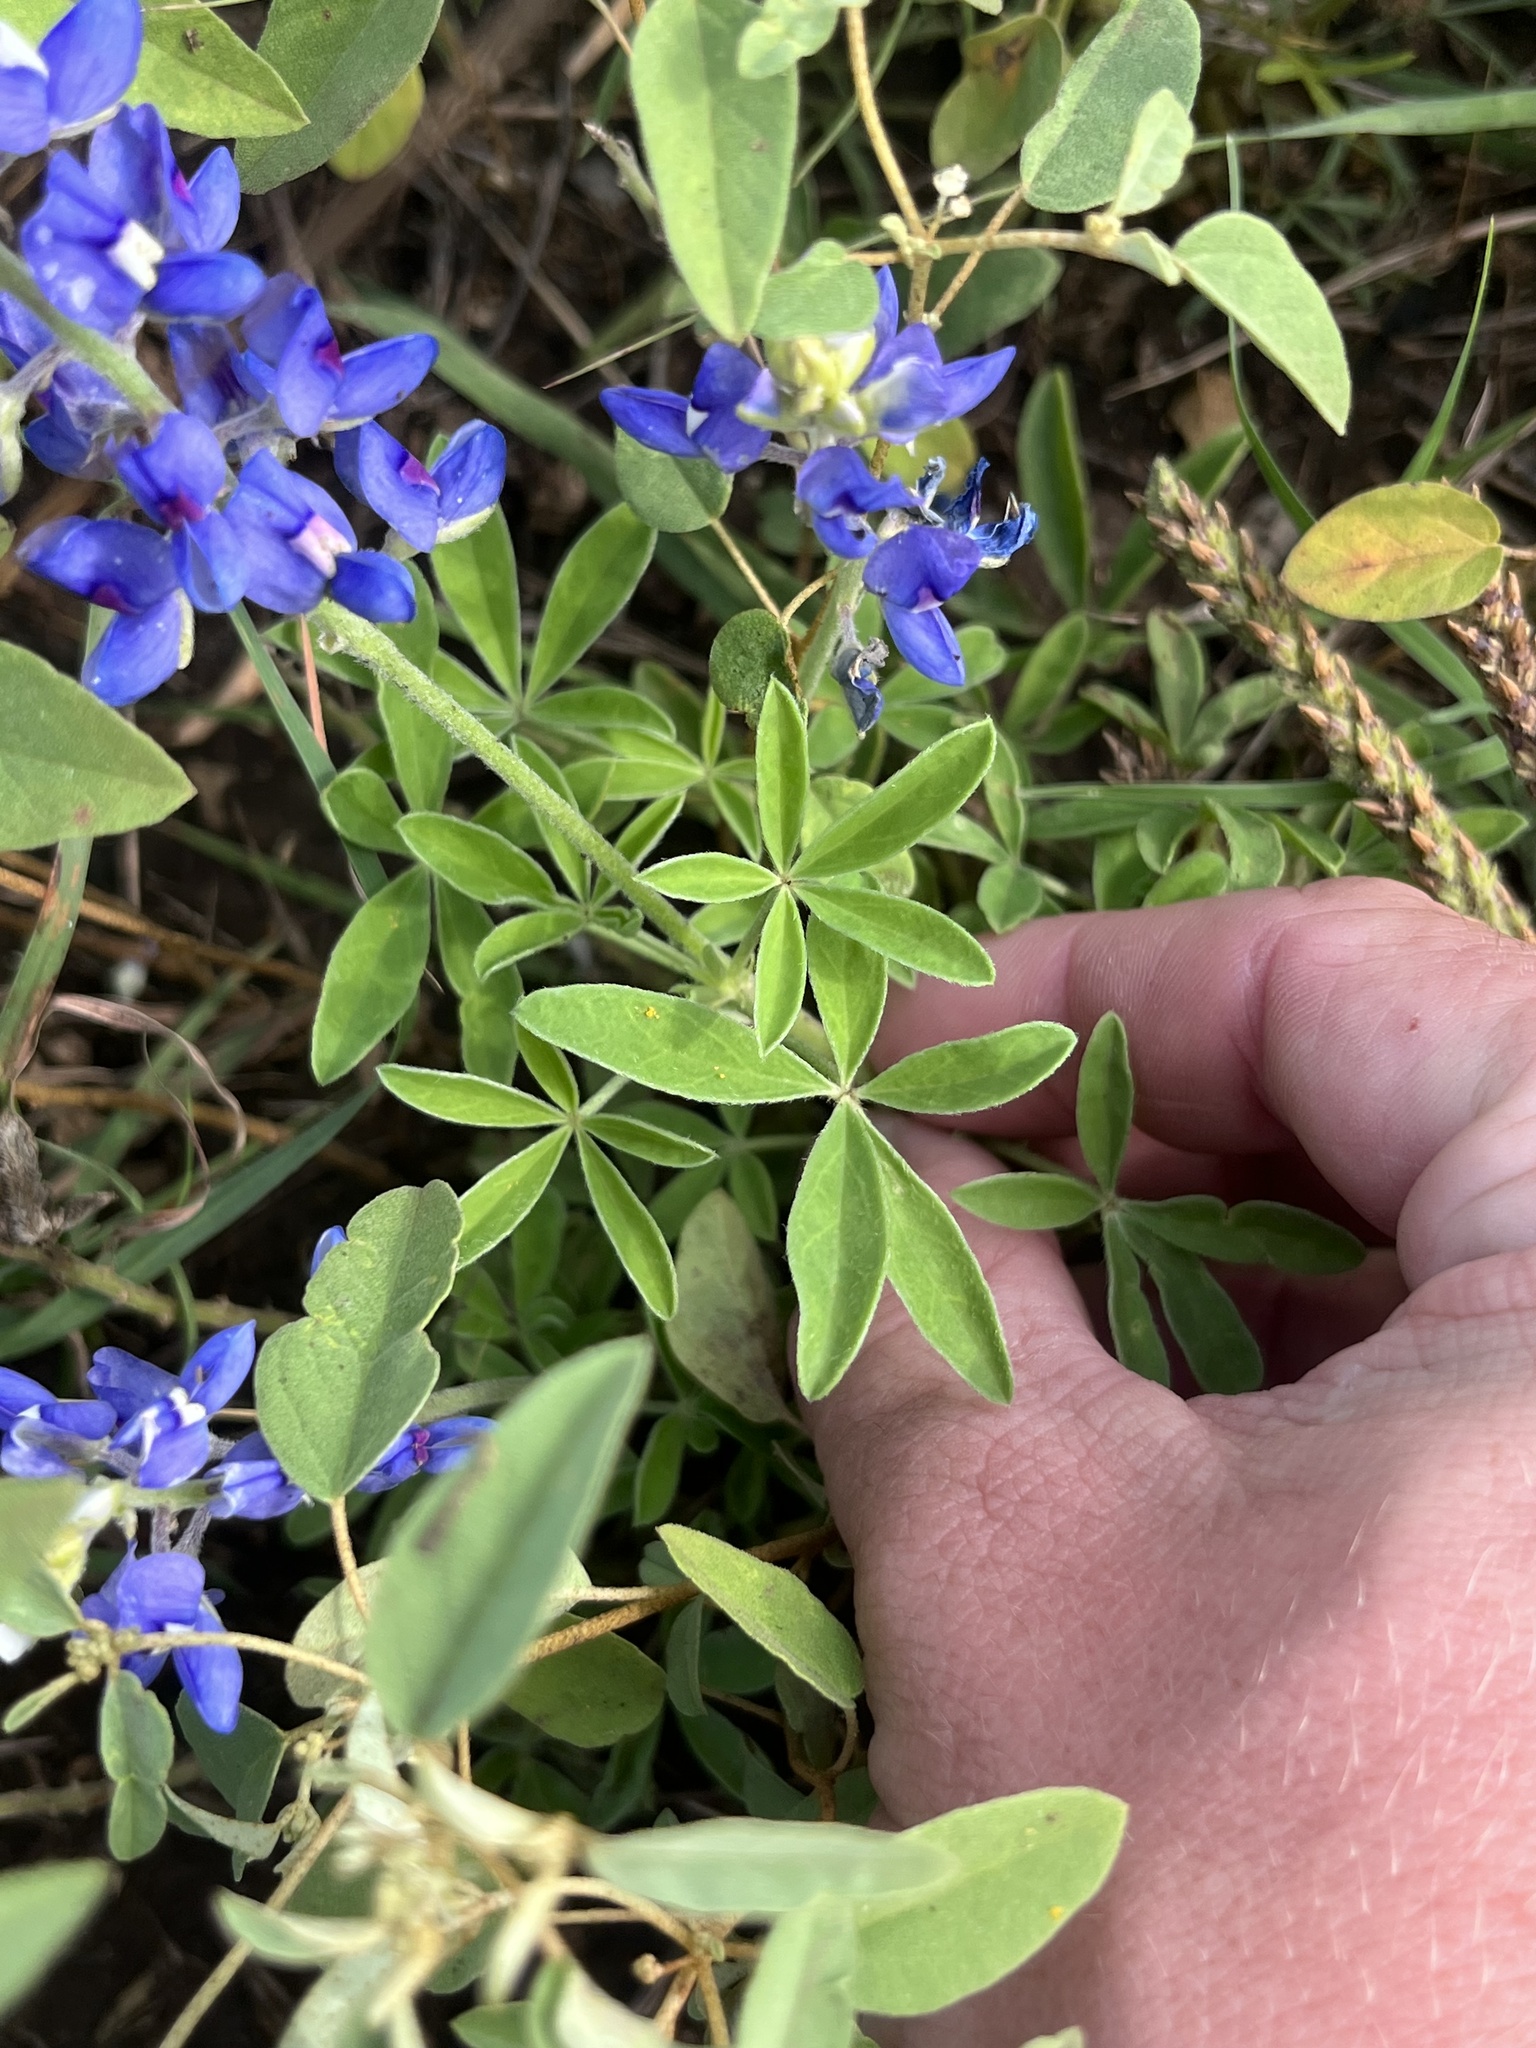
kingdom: Plantae
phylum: Tracheophyta
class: Magnoliopsida
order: Fabales
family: Fabaceae
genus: Lupinus
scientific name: Lupinus texensis
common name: Texas bluebonnet
